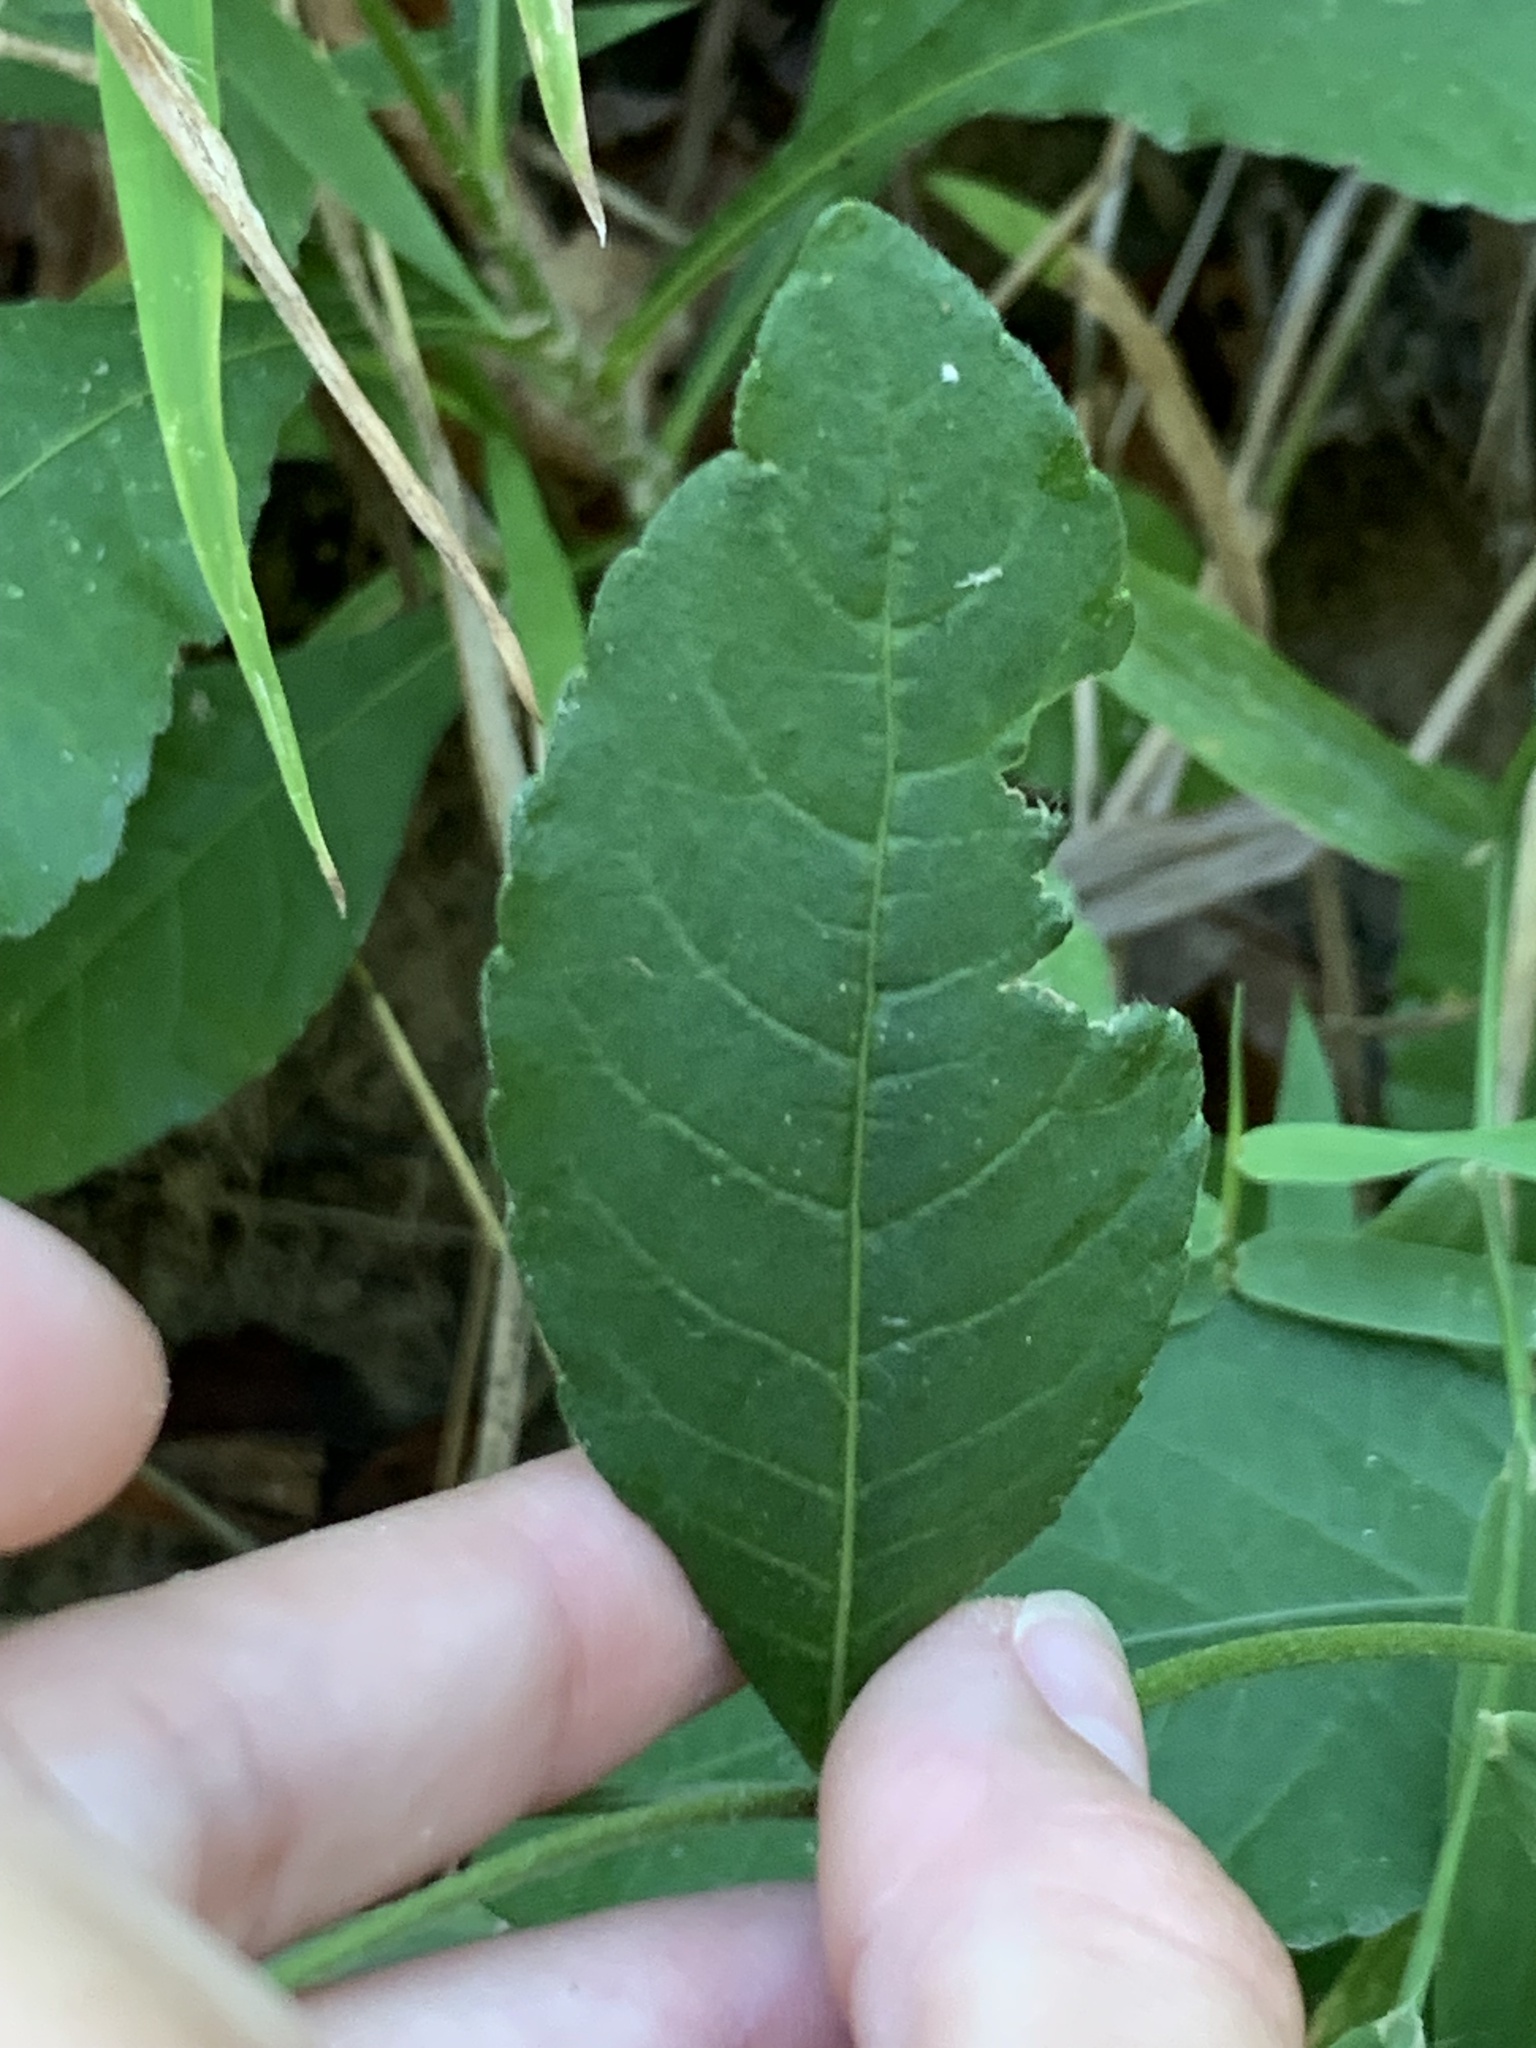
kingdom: Plantae
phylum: Tracheophyta
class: Magnoliopsida
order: Asterales
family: Asteraceae
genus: Elephantopus
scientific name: Elephantopus carolinianus
